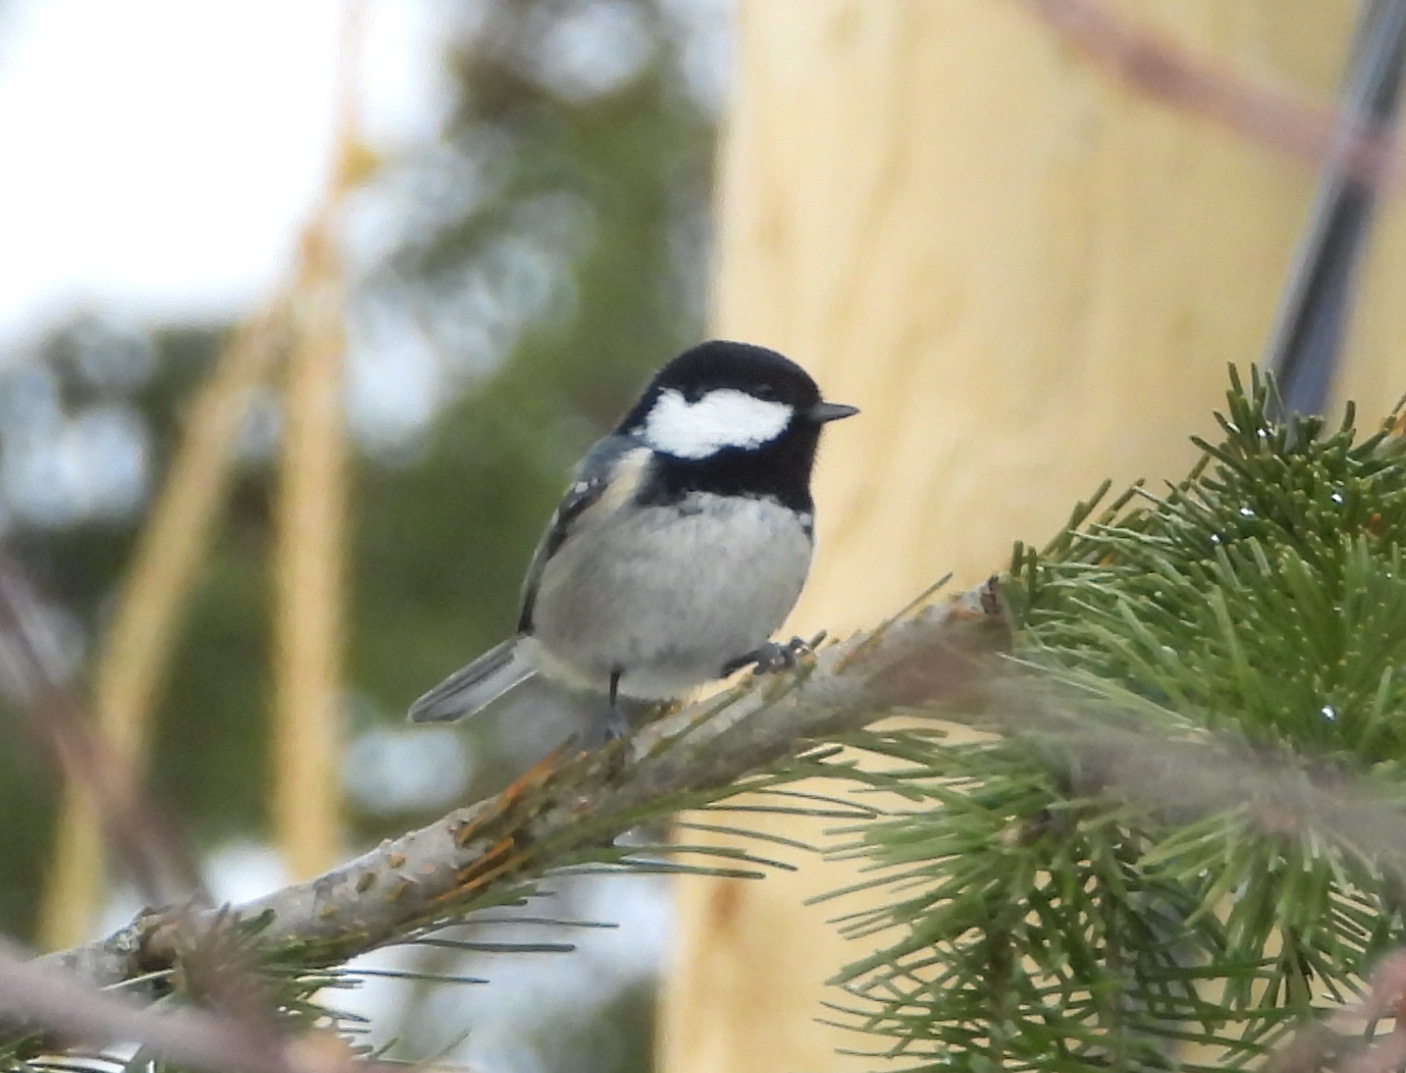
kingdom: Animalia
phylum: Chordata
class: Aves
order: Passeriformes
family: Paridae
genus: Periparus
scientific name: Periparus ater
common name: Coal tit
